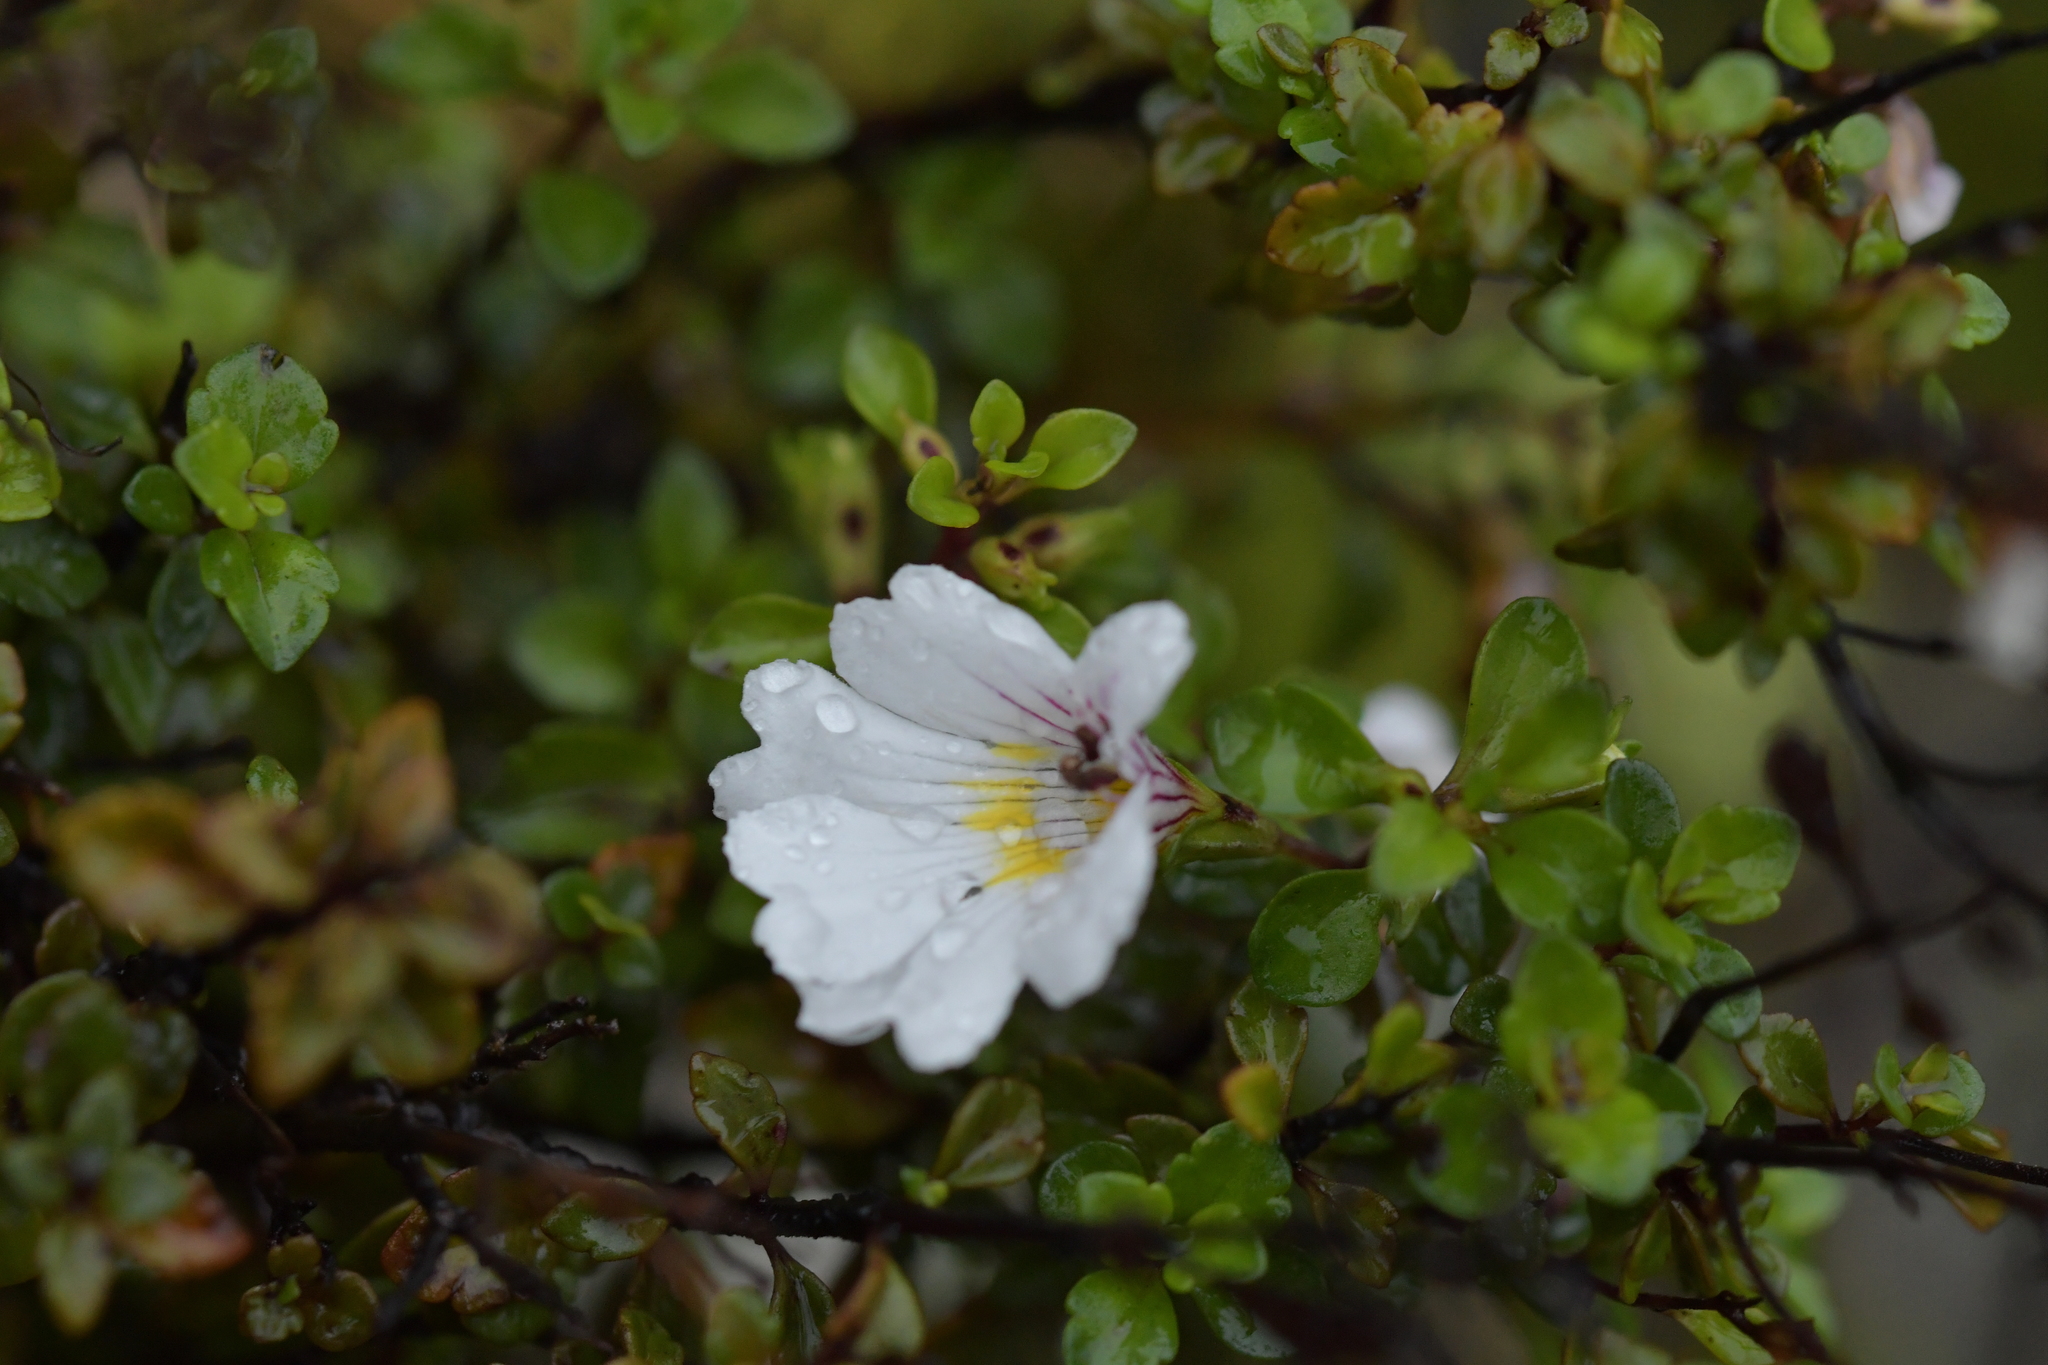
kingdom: Plantae
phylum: Tracheophyta
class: Magnoliopsida
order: Lamiales
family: Orobanchaceae
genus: Euphrasia
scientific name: Euphrasia cuneata
